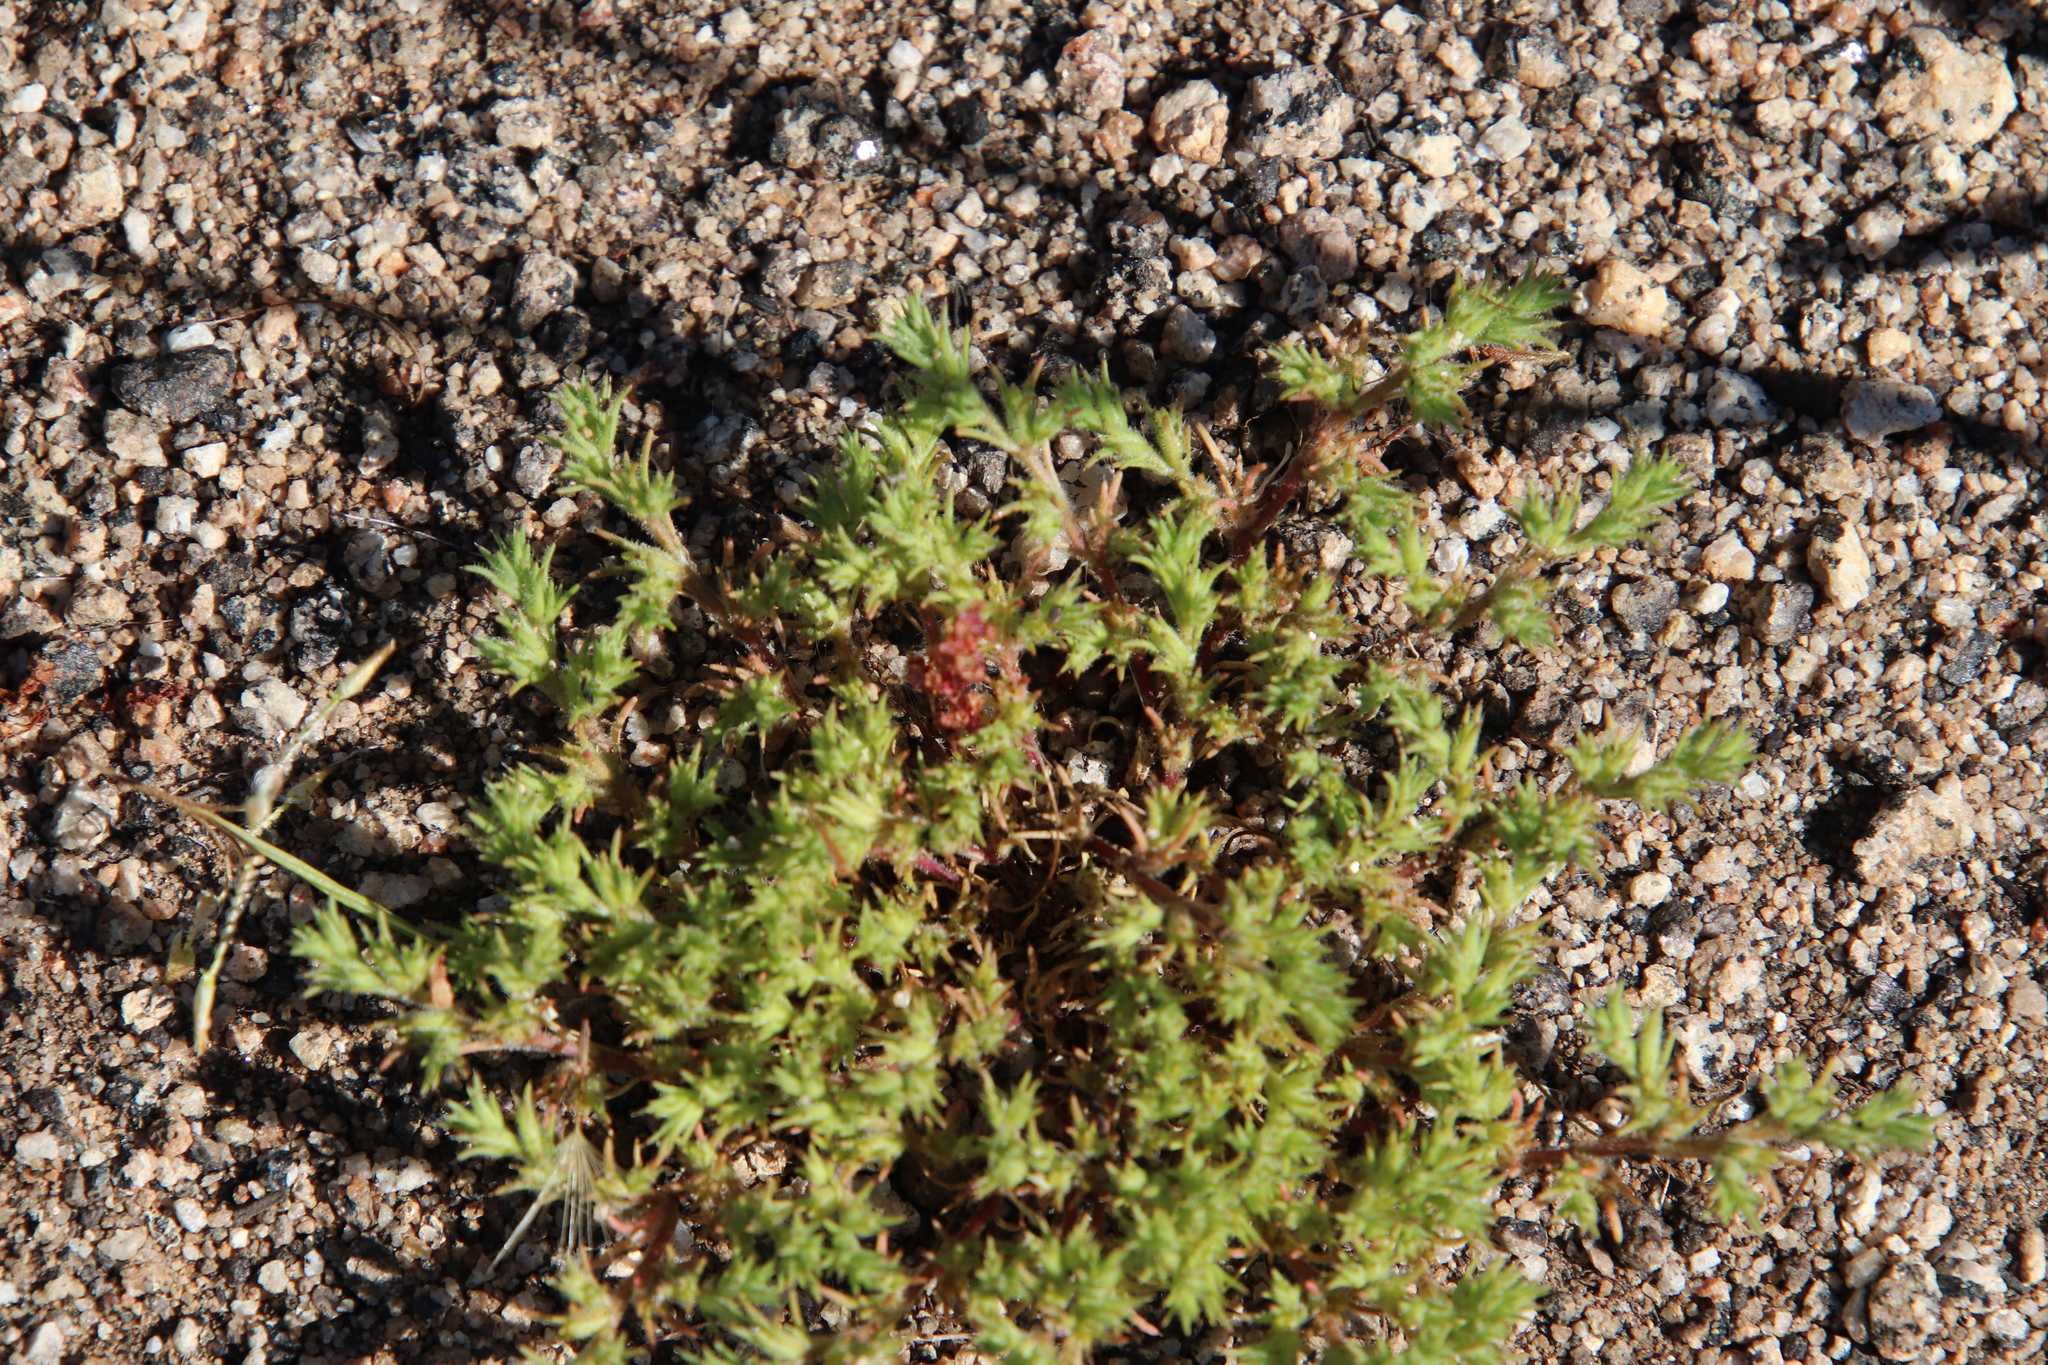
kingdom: Plantae
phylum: Tracheophyta
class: Magnoliopsida
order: Caryophyllales
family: Caryophyllaceae
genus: Loeflingia
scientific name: Loeflingia squarrosa
